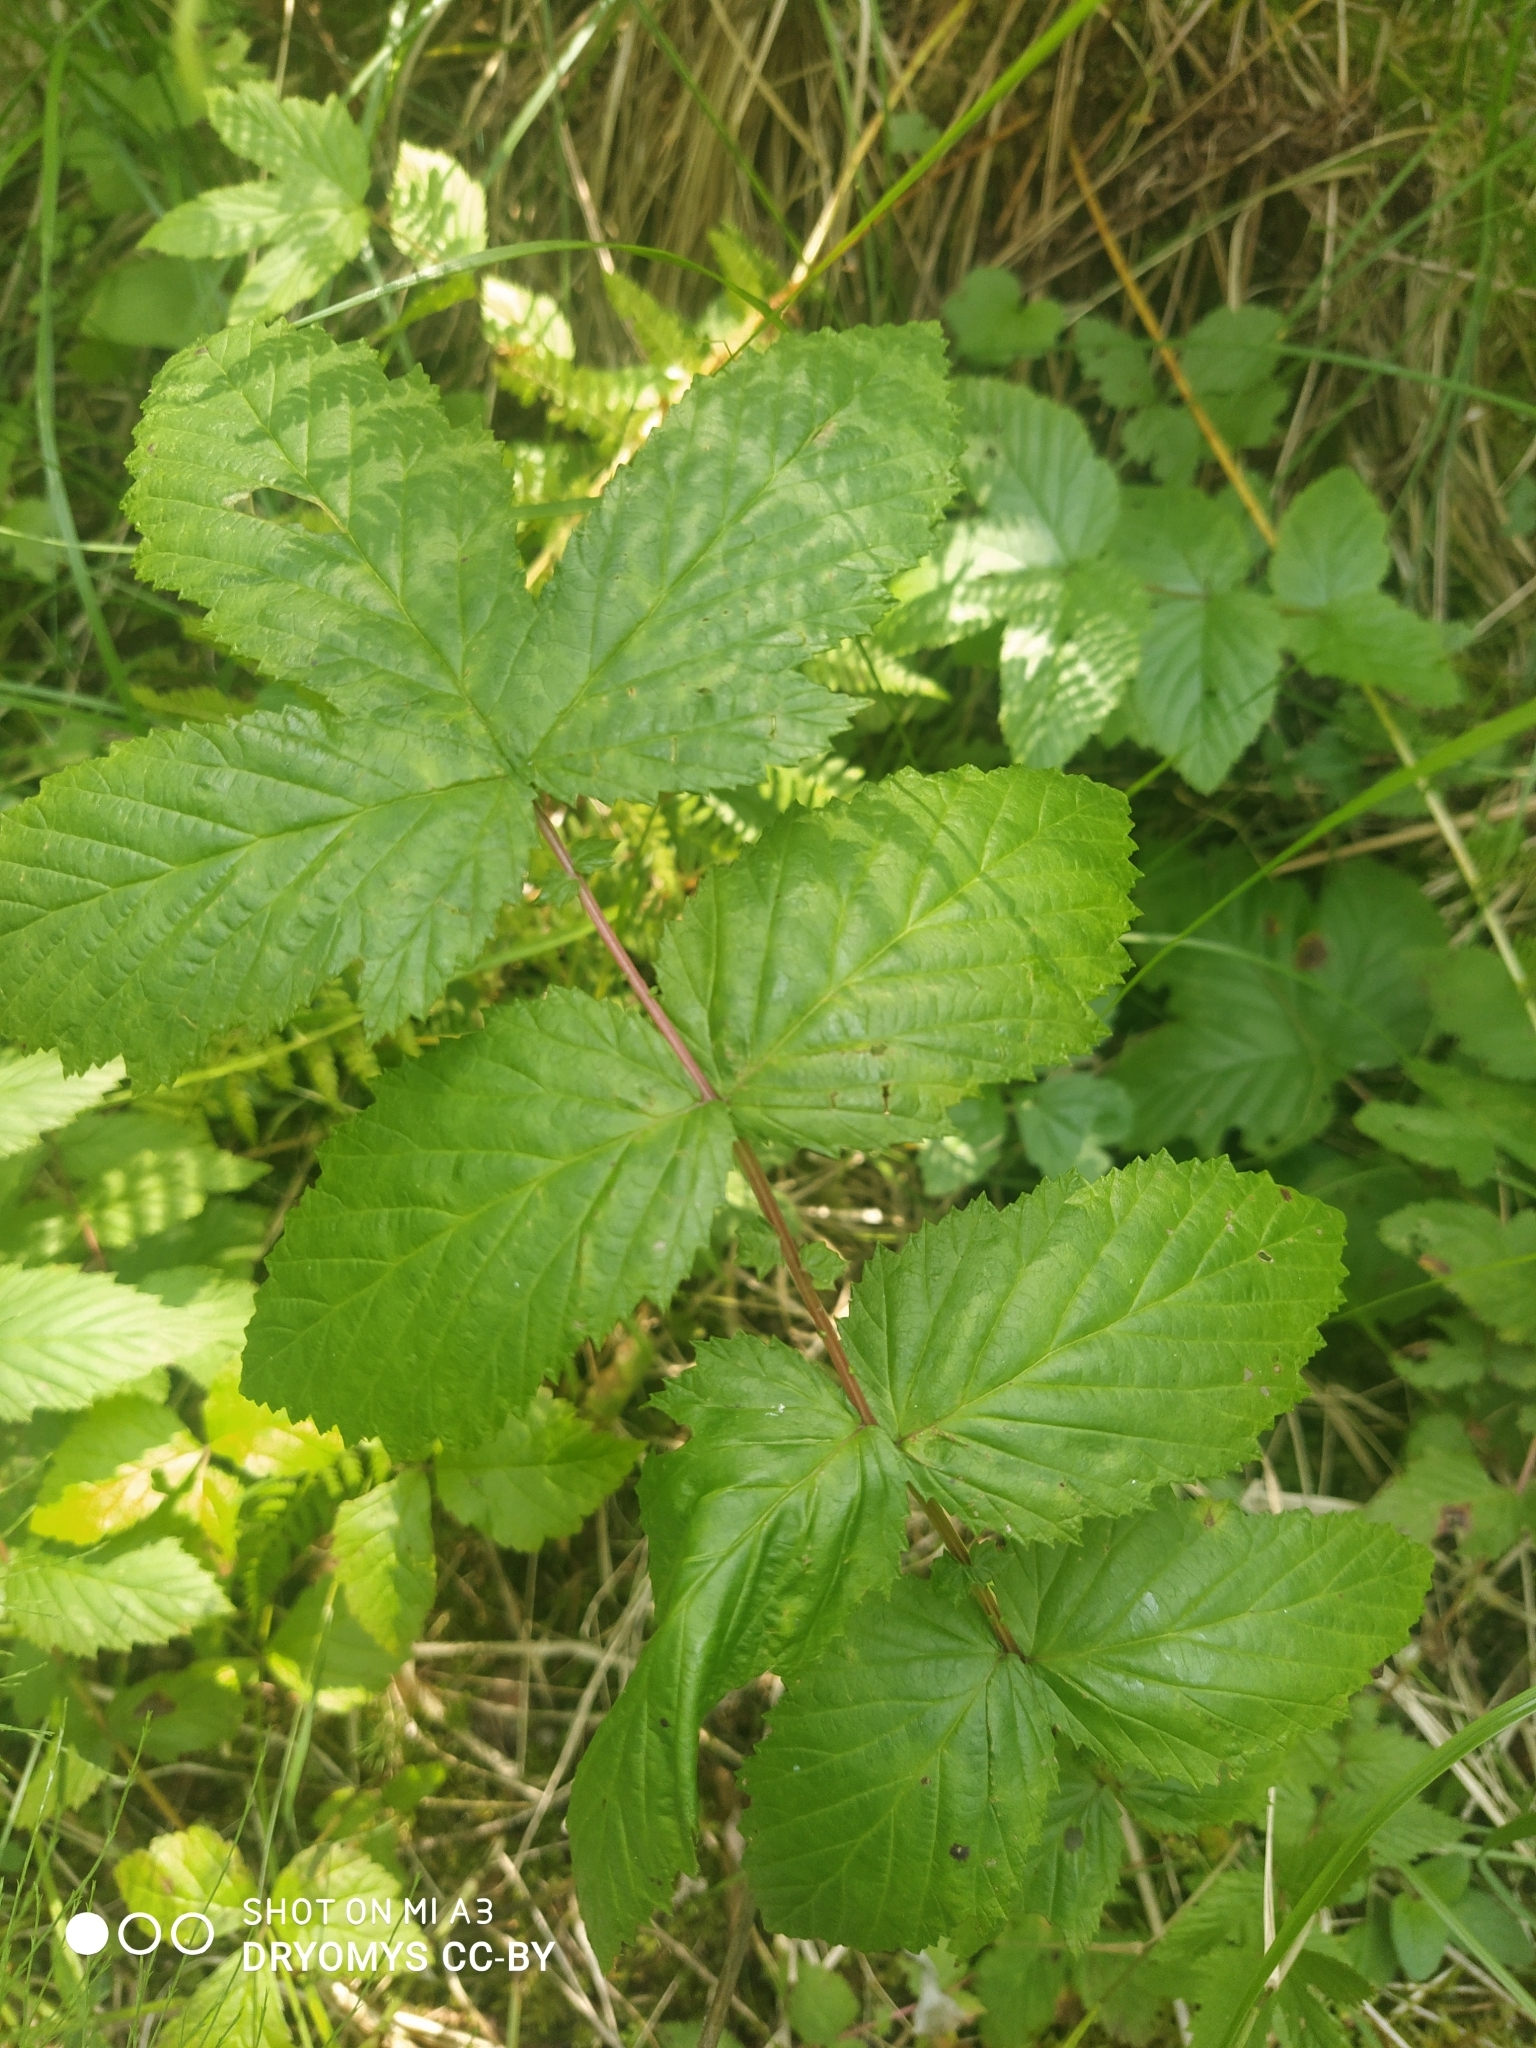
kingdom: Plantae
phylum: Tracheophyta
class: Magnoliopsida
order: Rosales
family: Rosaceae
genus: Filipendula
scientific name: Filipendula ulmaria
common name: Meadowsweet
